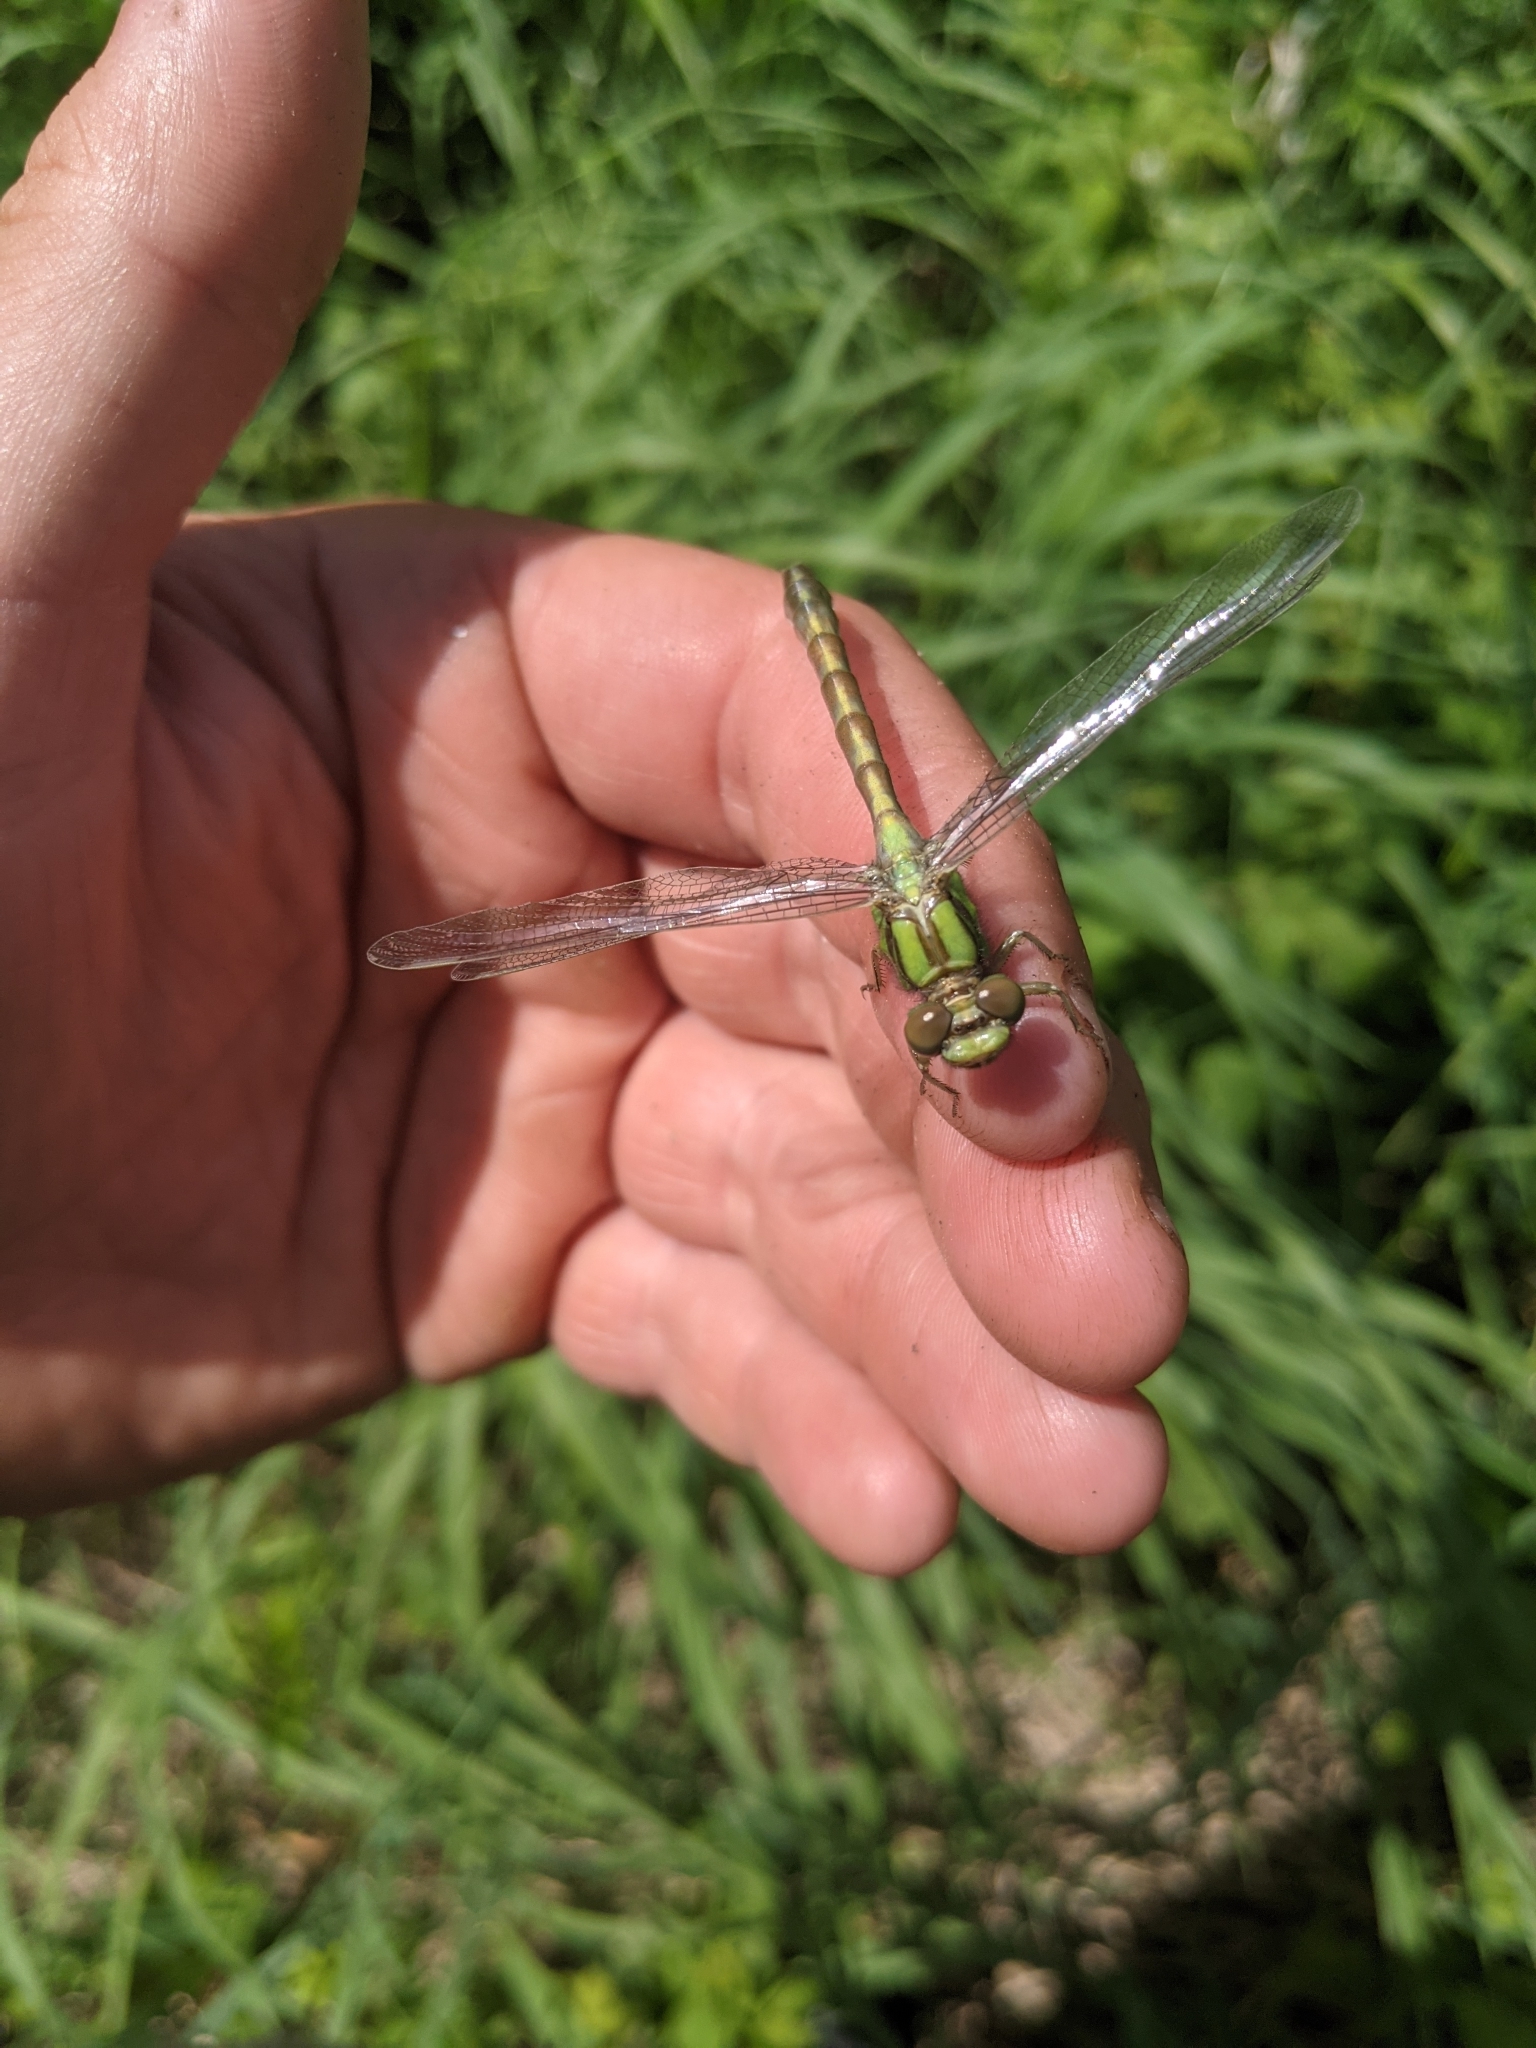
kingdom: Animalia
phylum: Arthropoda
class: Insecta
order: Odonata
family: Gomphidae
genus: Ophiogomphus
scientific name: Ophiogomphus rupinsulensis
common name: Rusty snaketail
